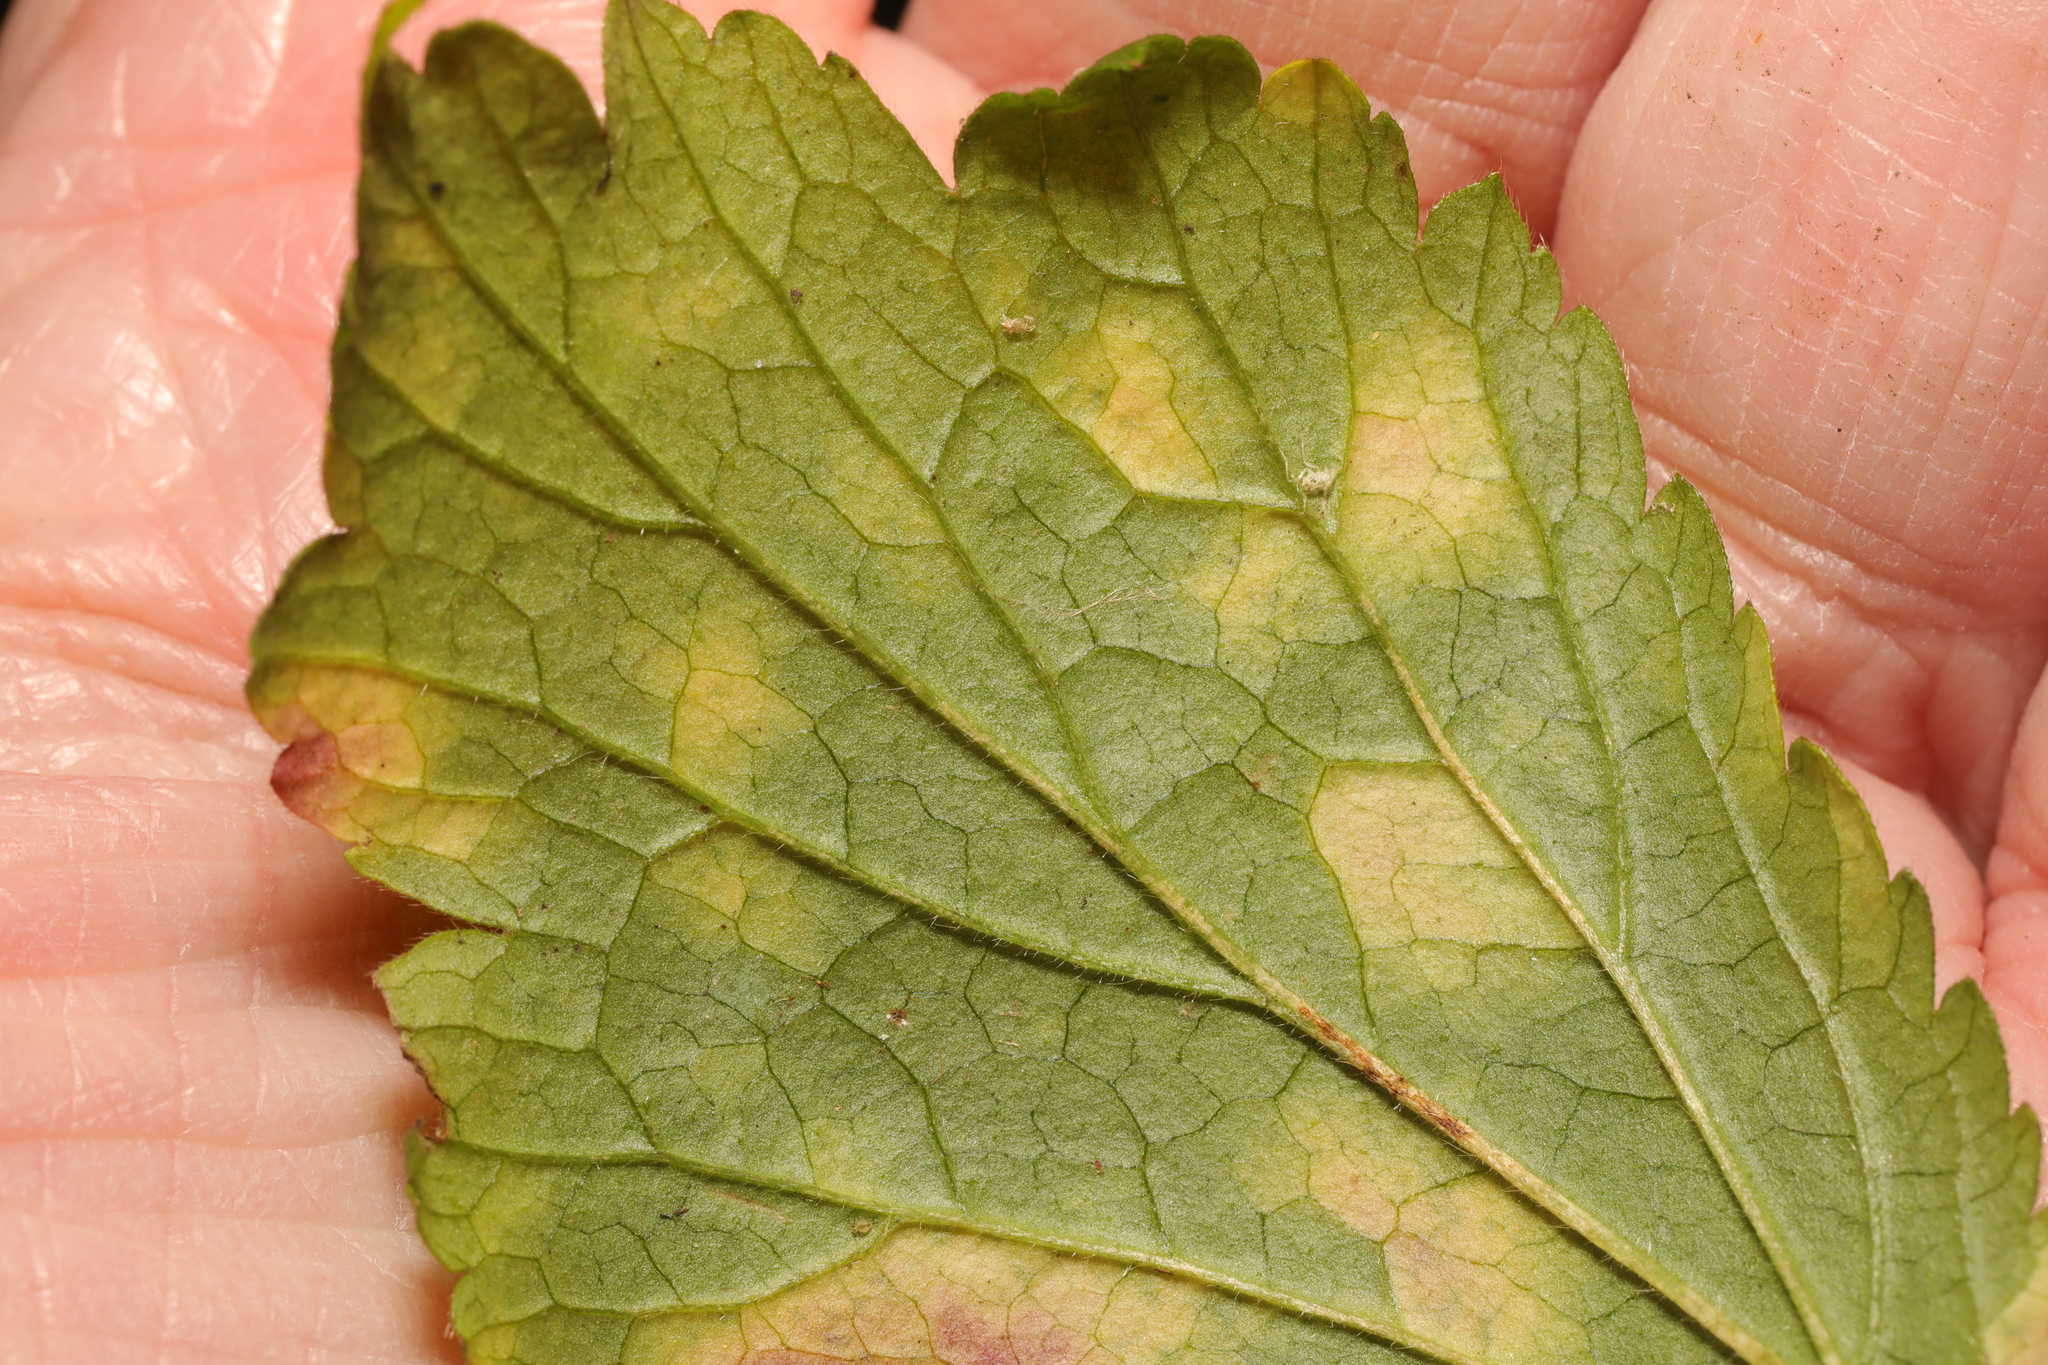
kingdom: Chromista
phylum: Oomycota
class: Peronosporea
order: Peronosporales
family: Peronosporaceae
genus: Peronospora
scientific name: Peronospora gei
